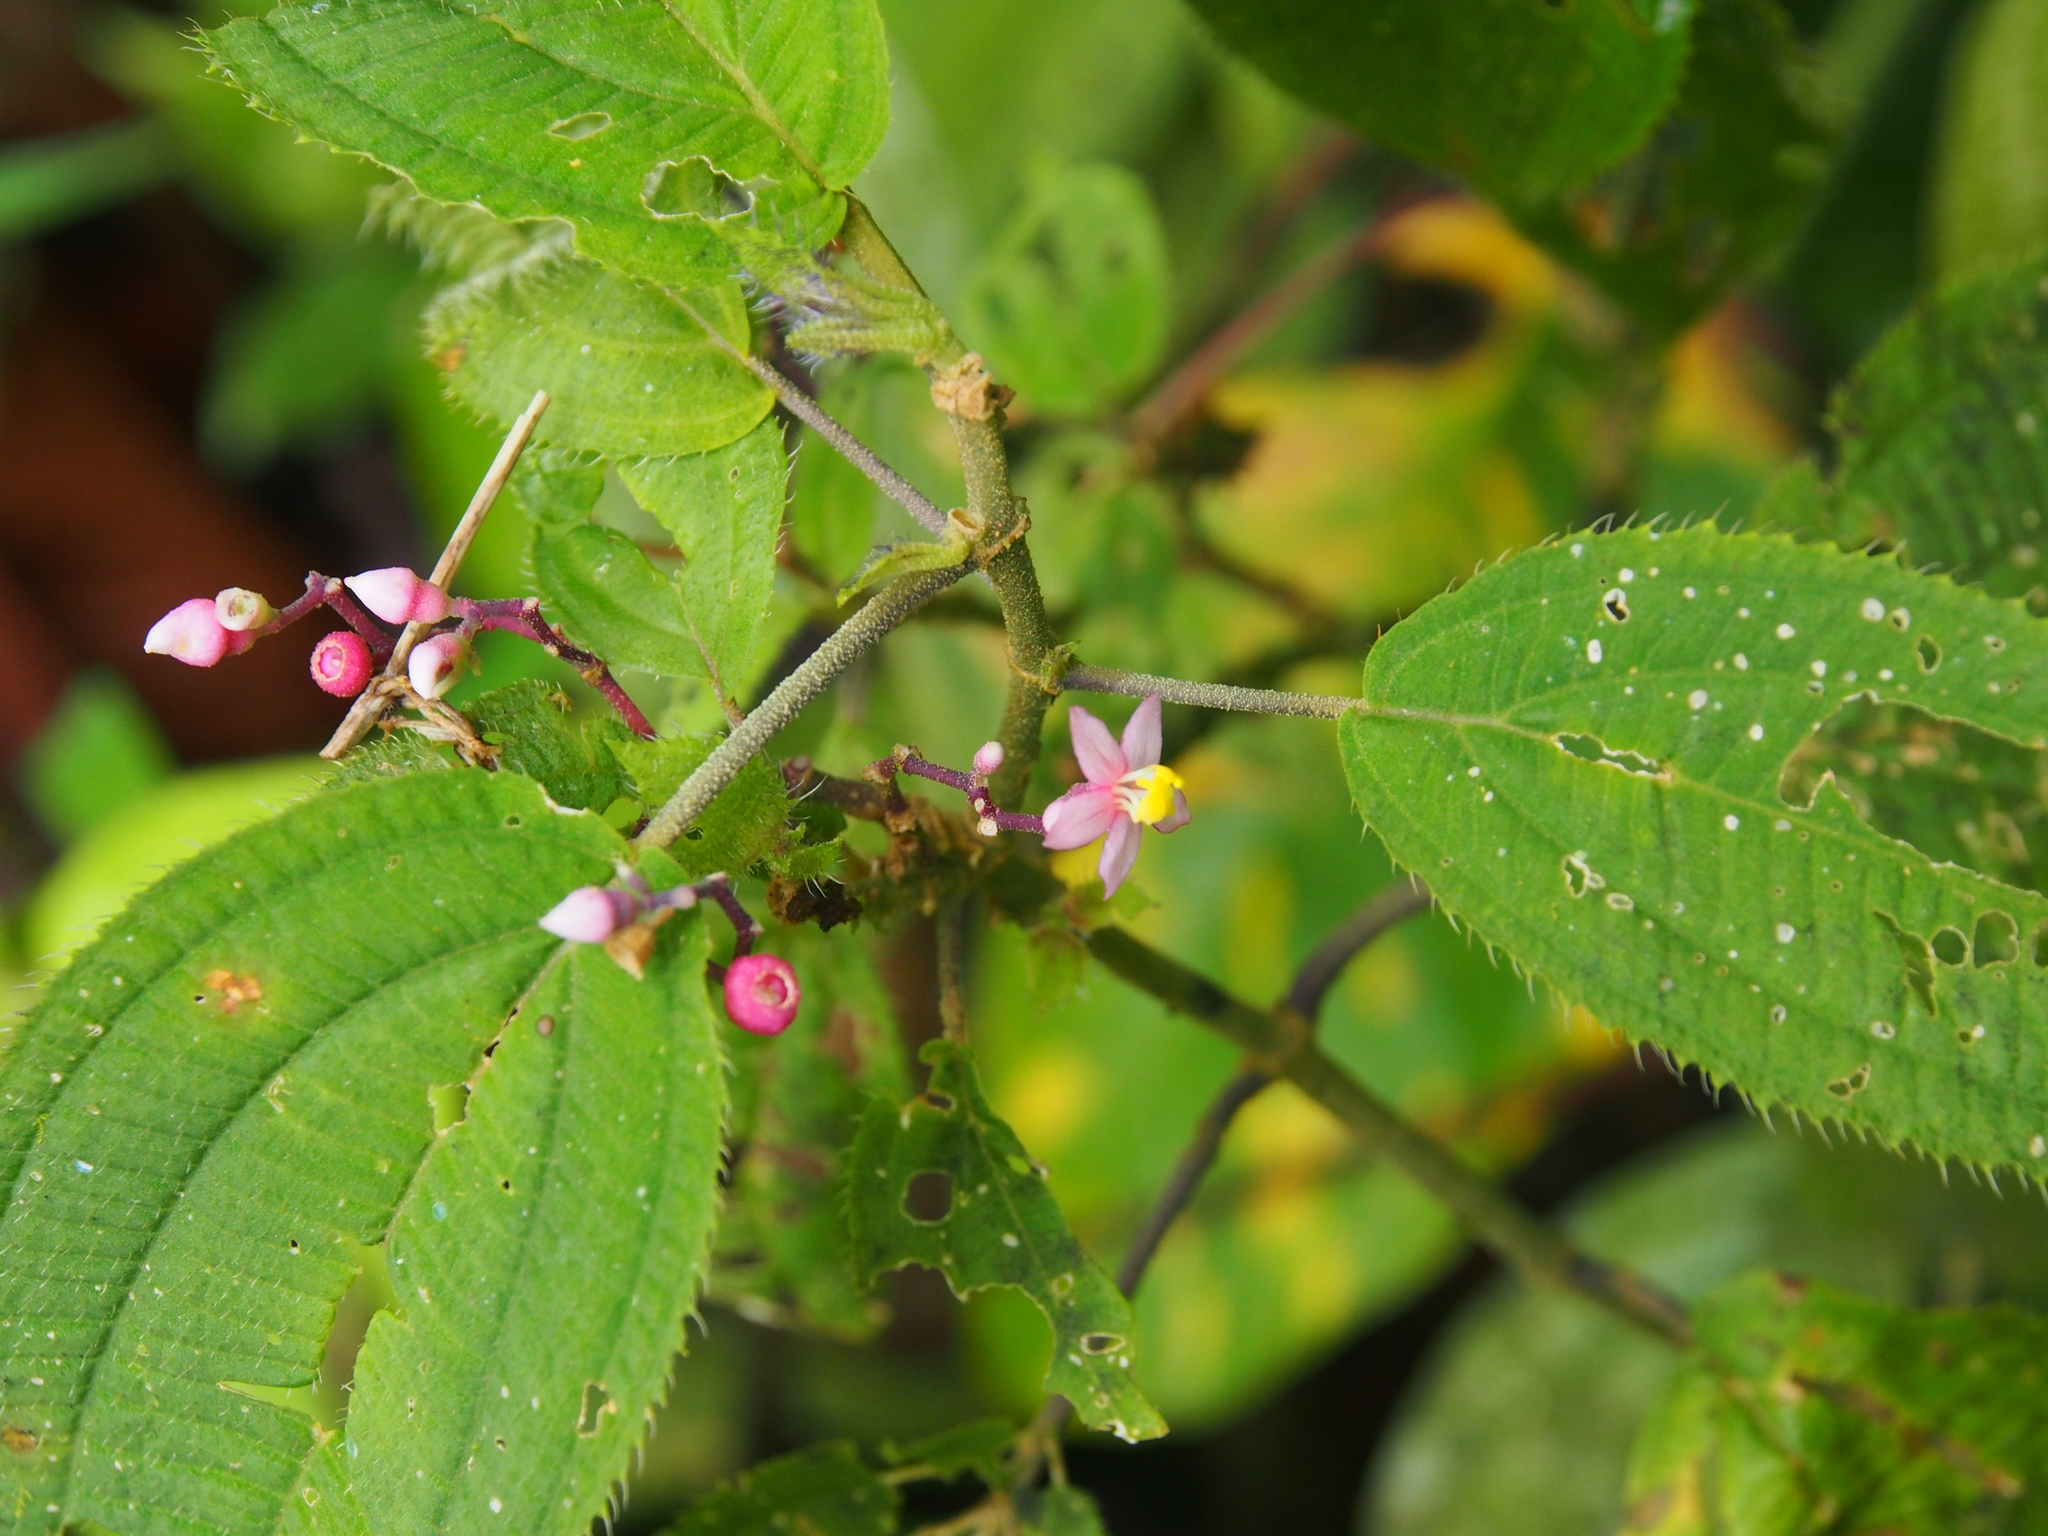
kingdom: Plantae
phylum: Tracheophyta
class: Magnoliopsida
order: Myrtales
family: Melastomataceae
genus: Miconia
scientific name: Miconia subcrustulata
